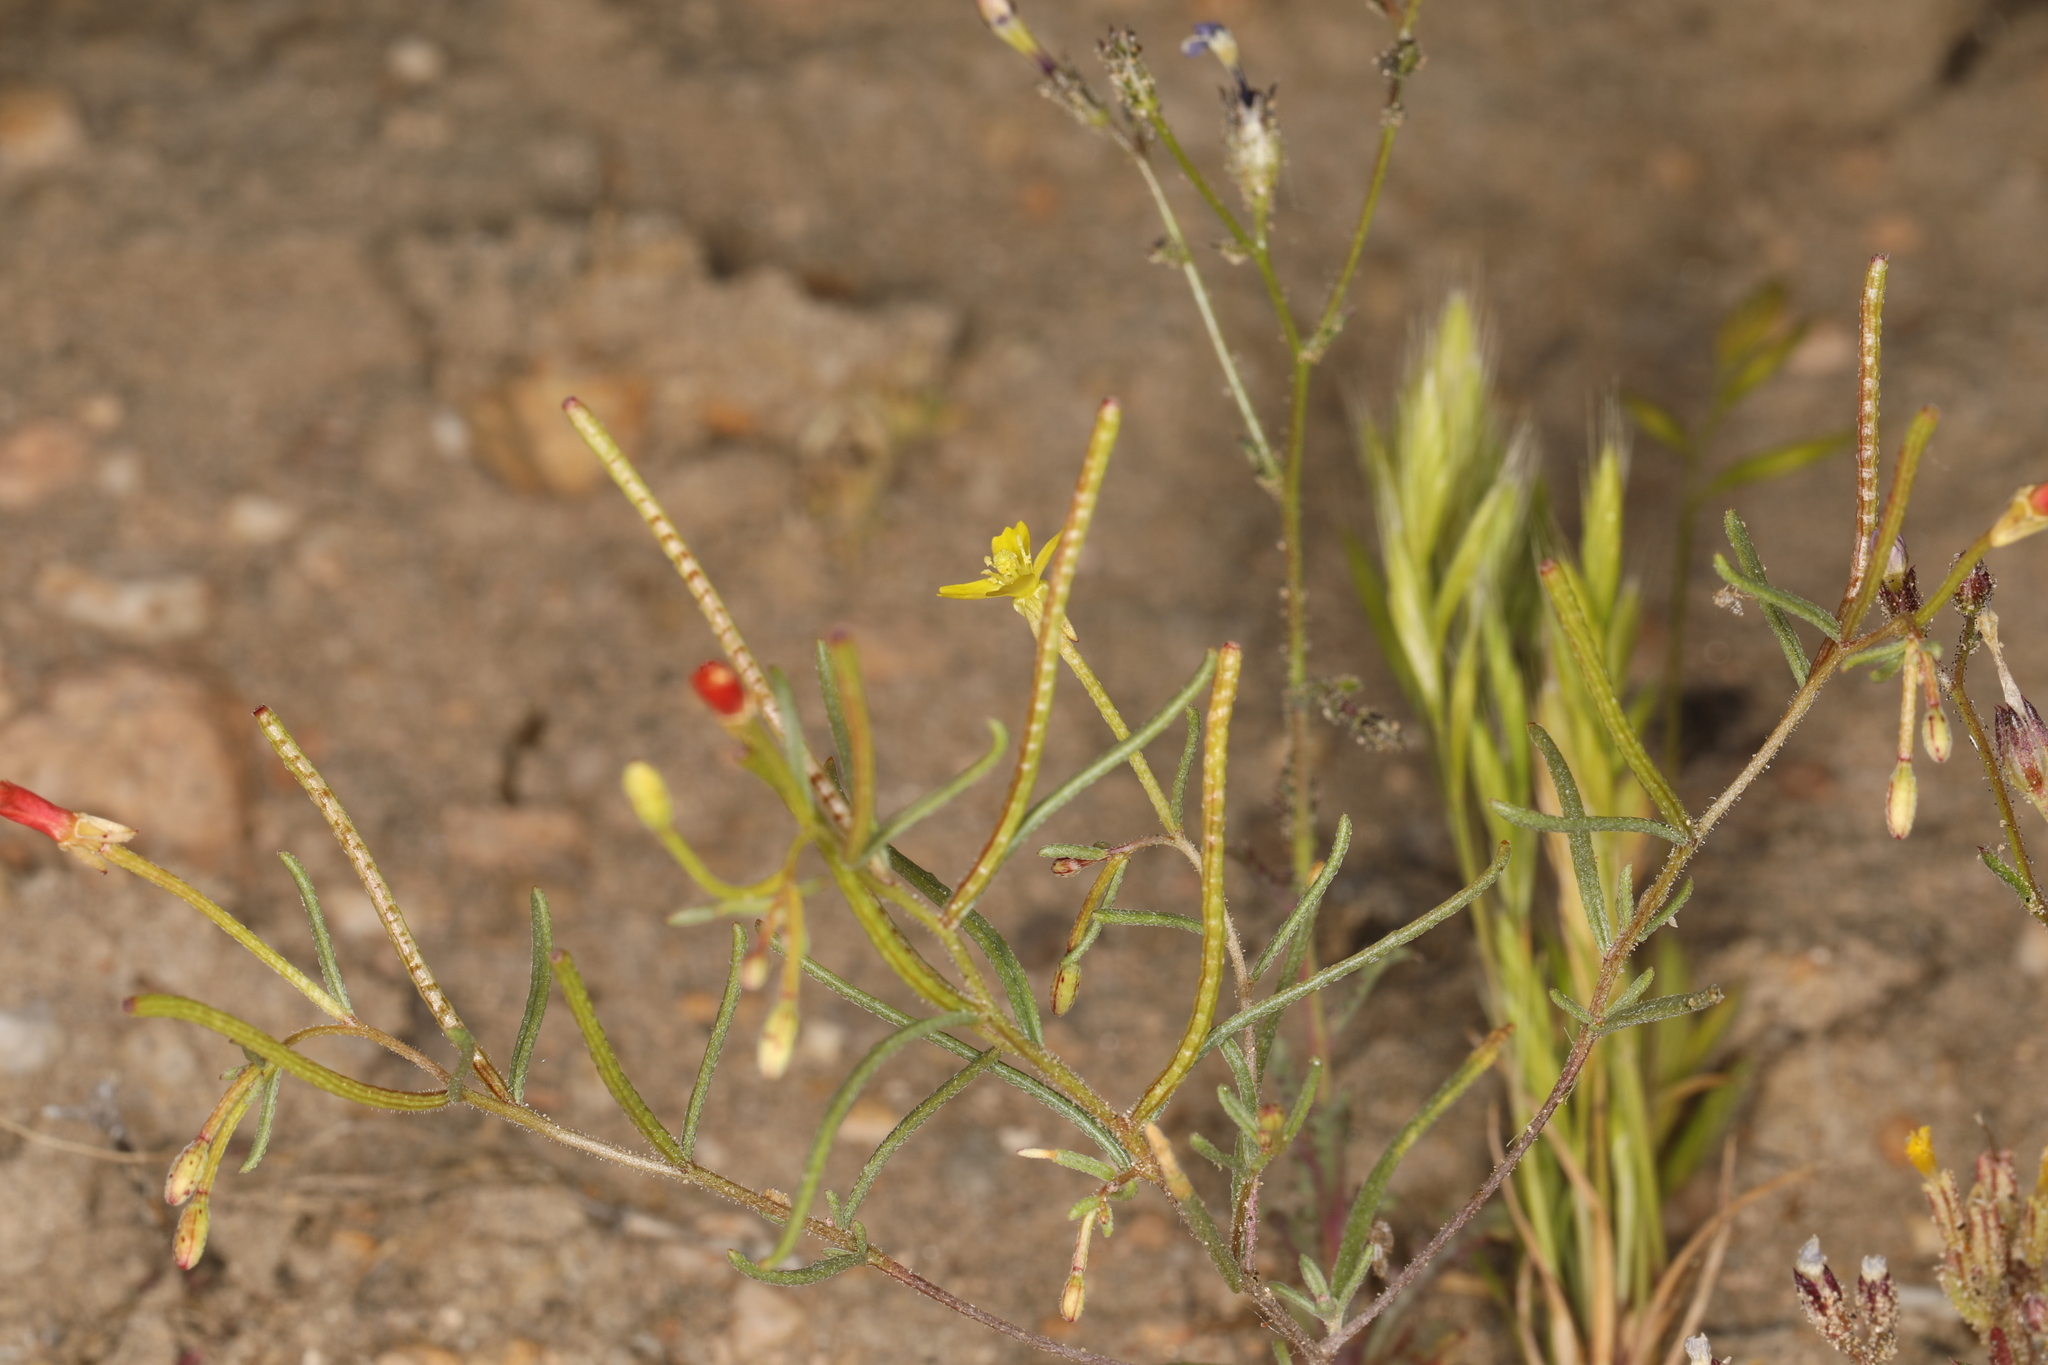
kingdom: Plantae
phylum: Tracheophyta
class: Magnoliopsida
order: Myrtales
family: Onagraceae
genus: Camissonia
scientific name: Camissonia parvula
